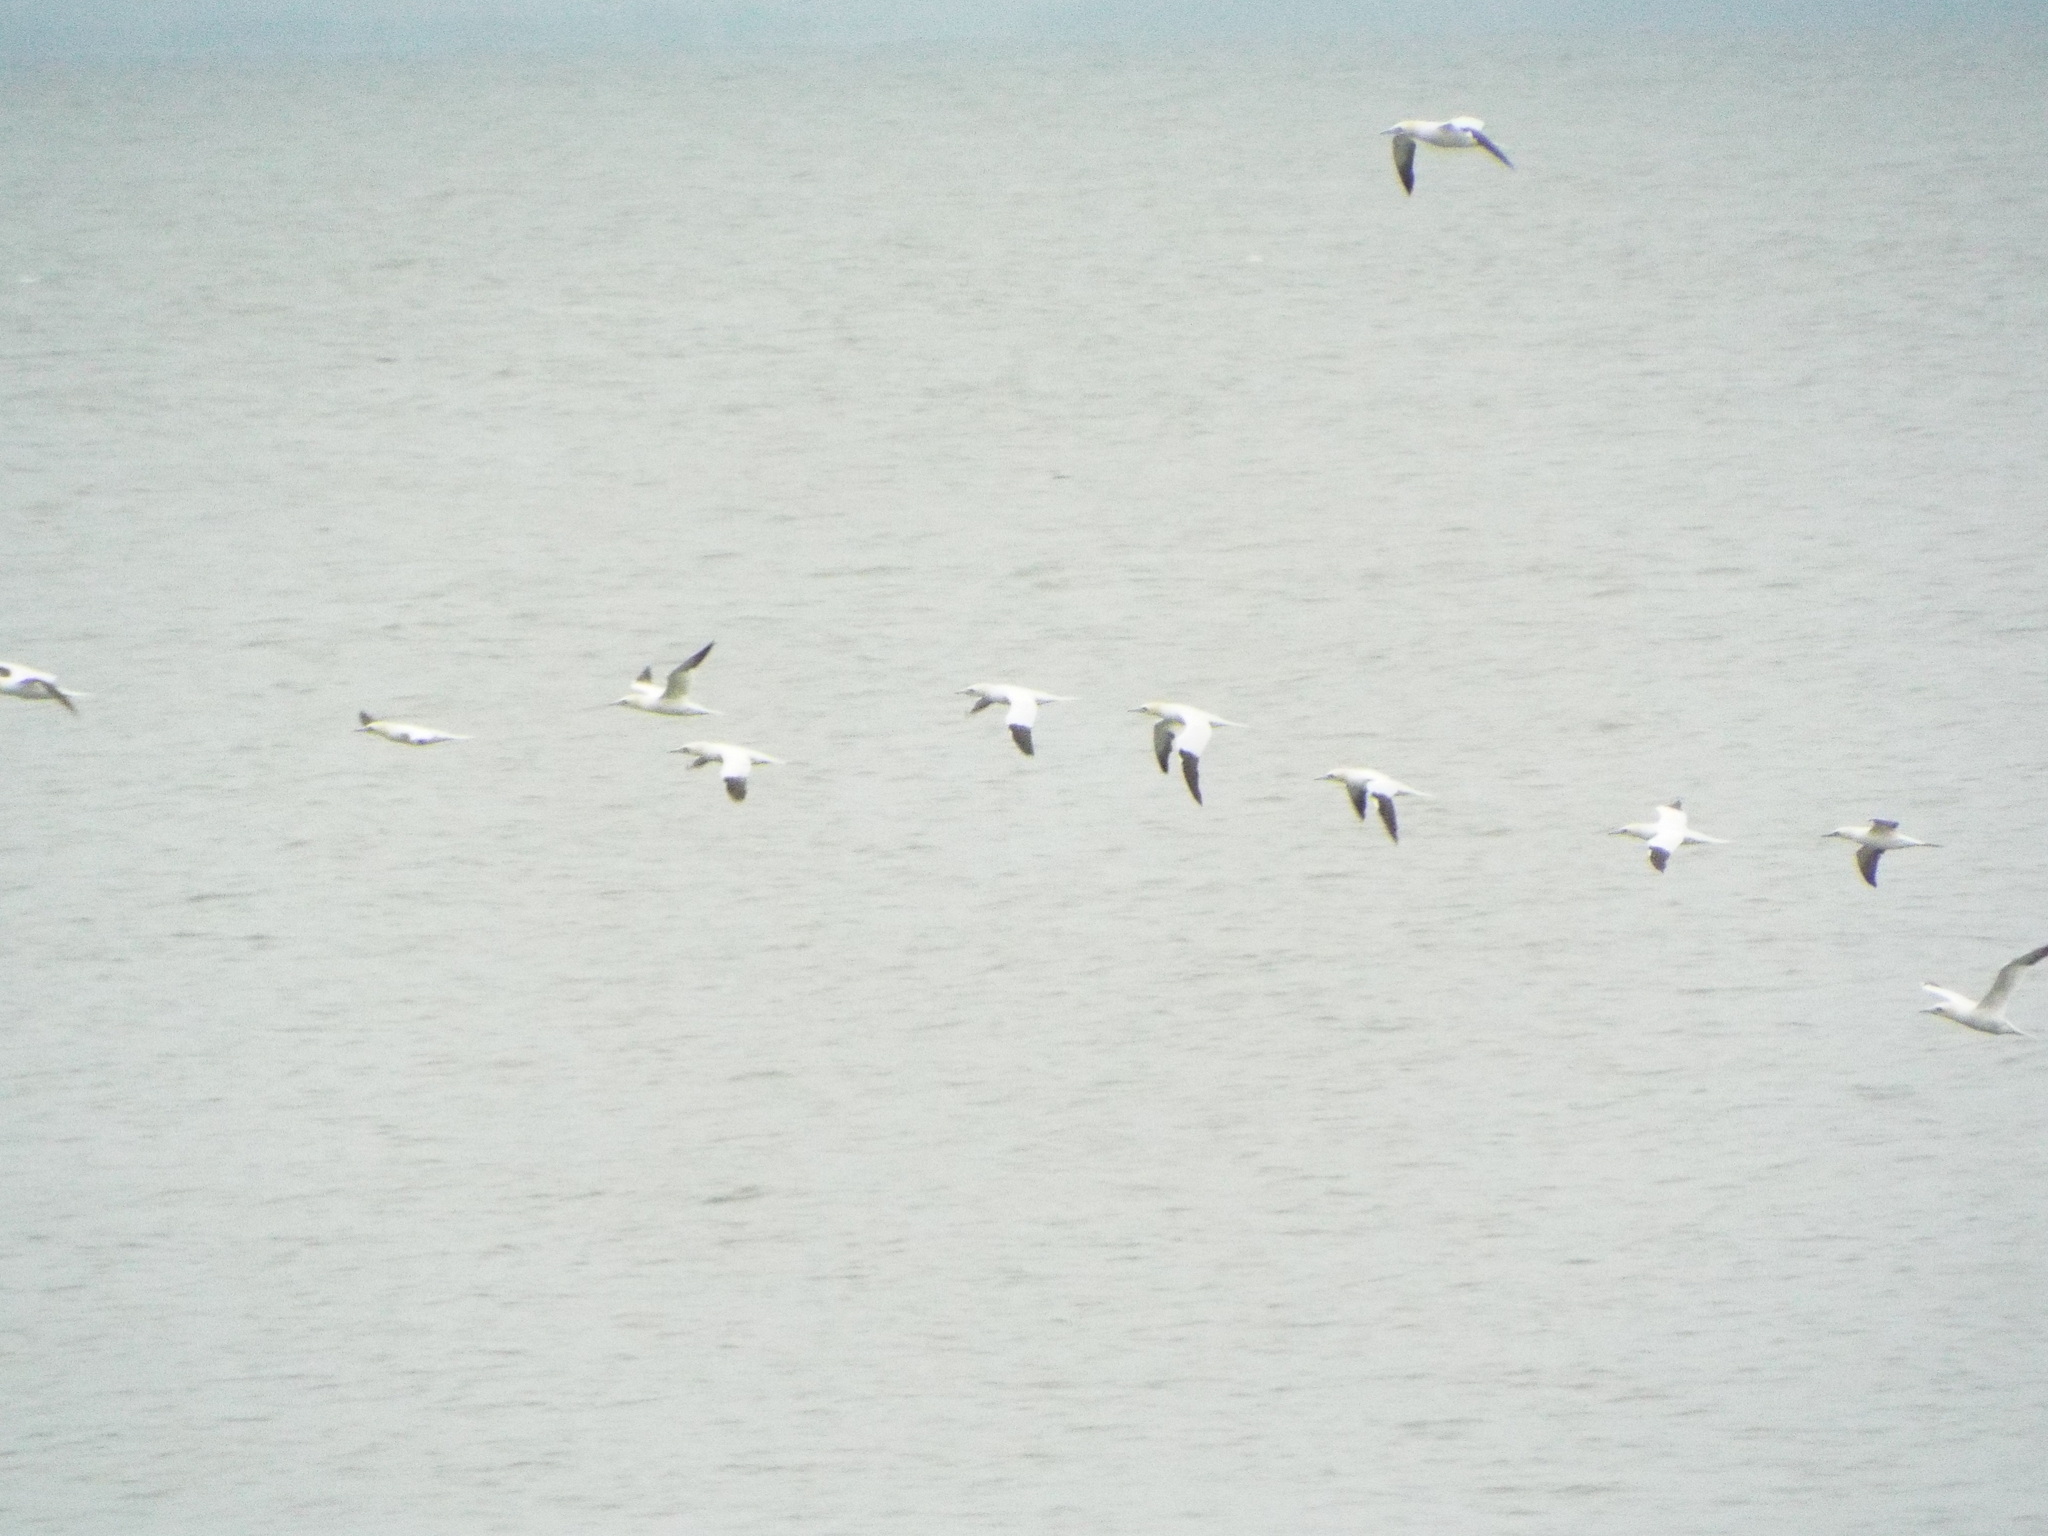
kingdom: Animalia
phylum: Chordata
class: Aves
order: Suliformes
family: Sulidae
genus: Morus
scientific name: Morus bassanus
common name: Northern gannet
